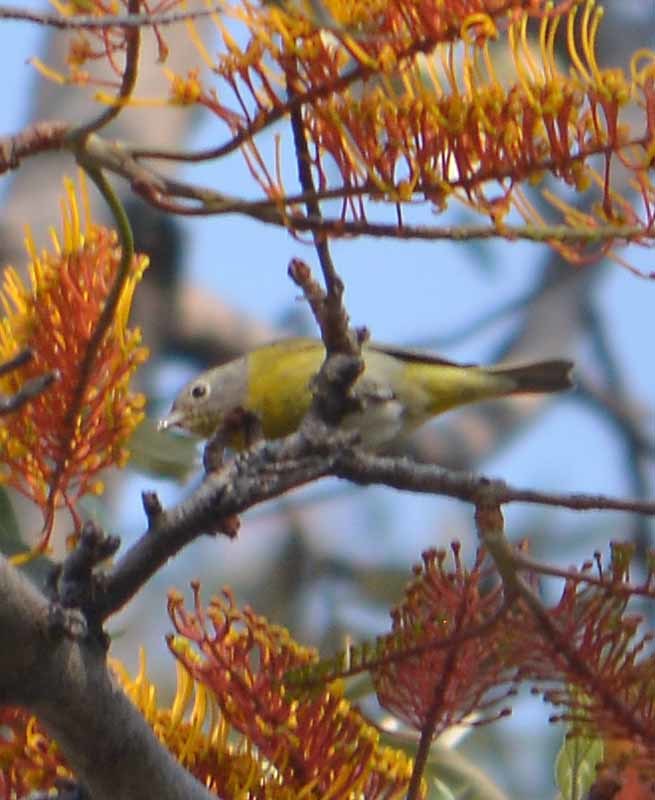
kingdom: Animalia
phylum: Chordata
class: Aves
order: Passeriformes
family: Parulidae
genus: Leiothlypis
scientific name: Leiothlypis ruficapilla
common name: Nashville warbler
